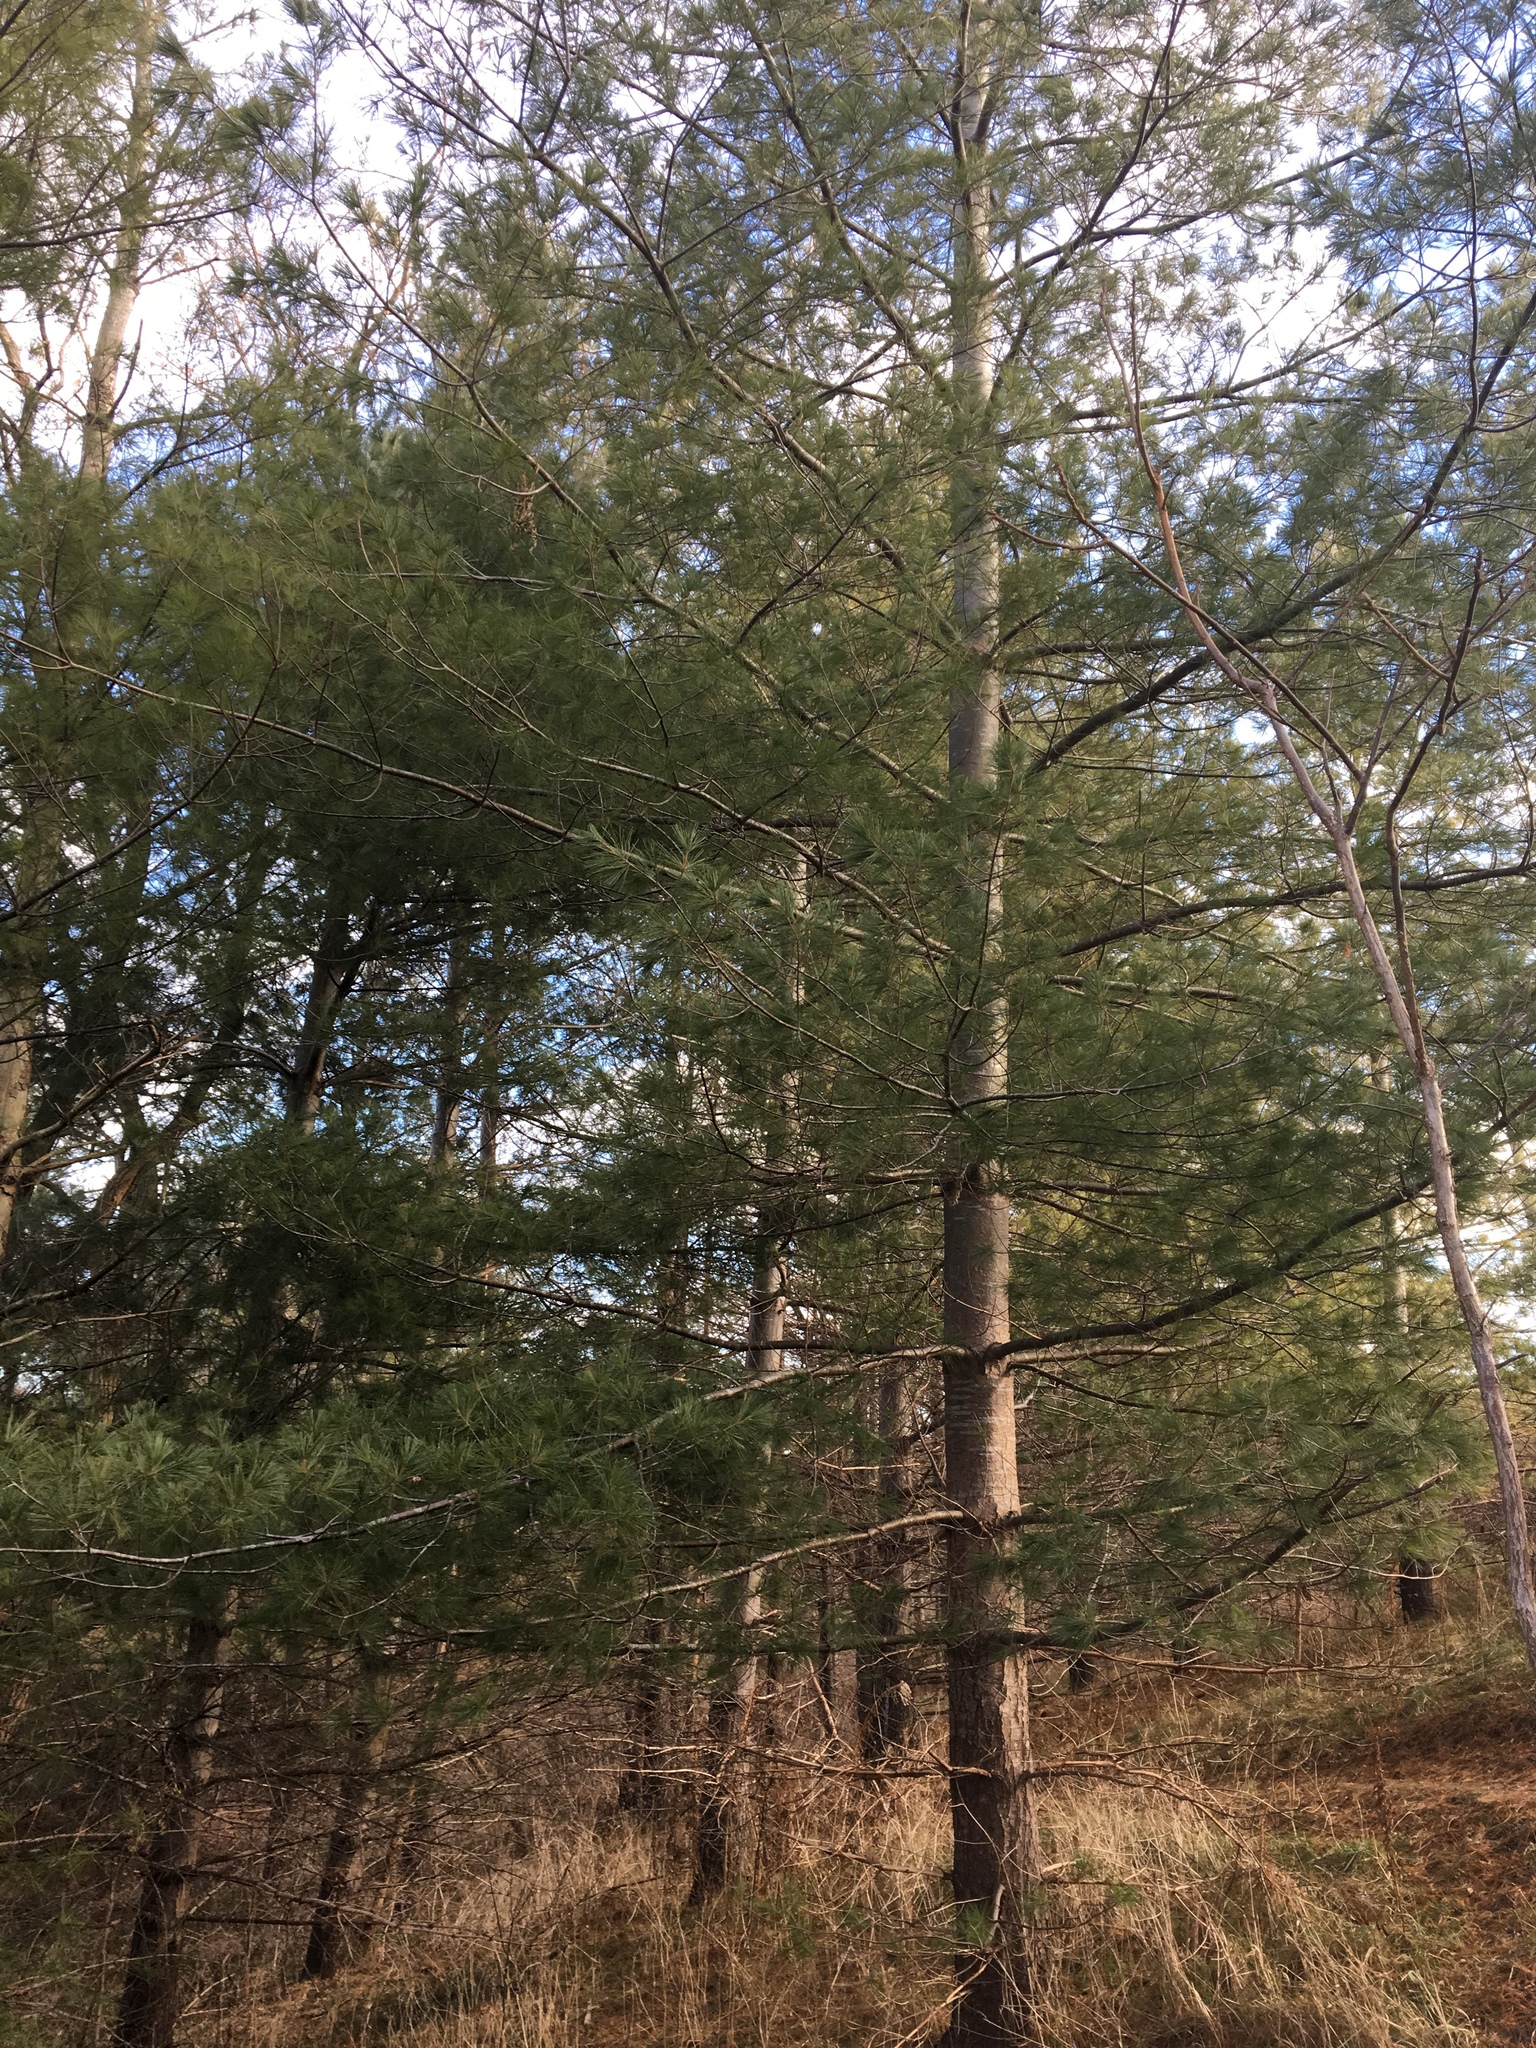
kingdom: Plantae
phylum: Tracheophyta
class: Pinopsida
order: Pinales
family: Pinaceae
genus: Pinus
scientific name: Pinus strobus
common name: Weymouth pine
